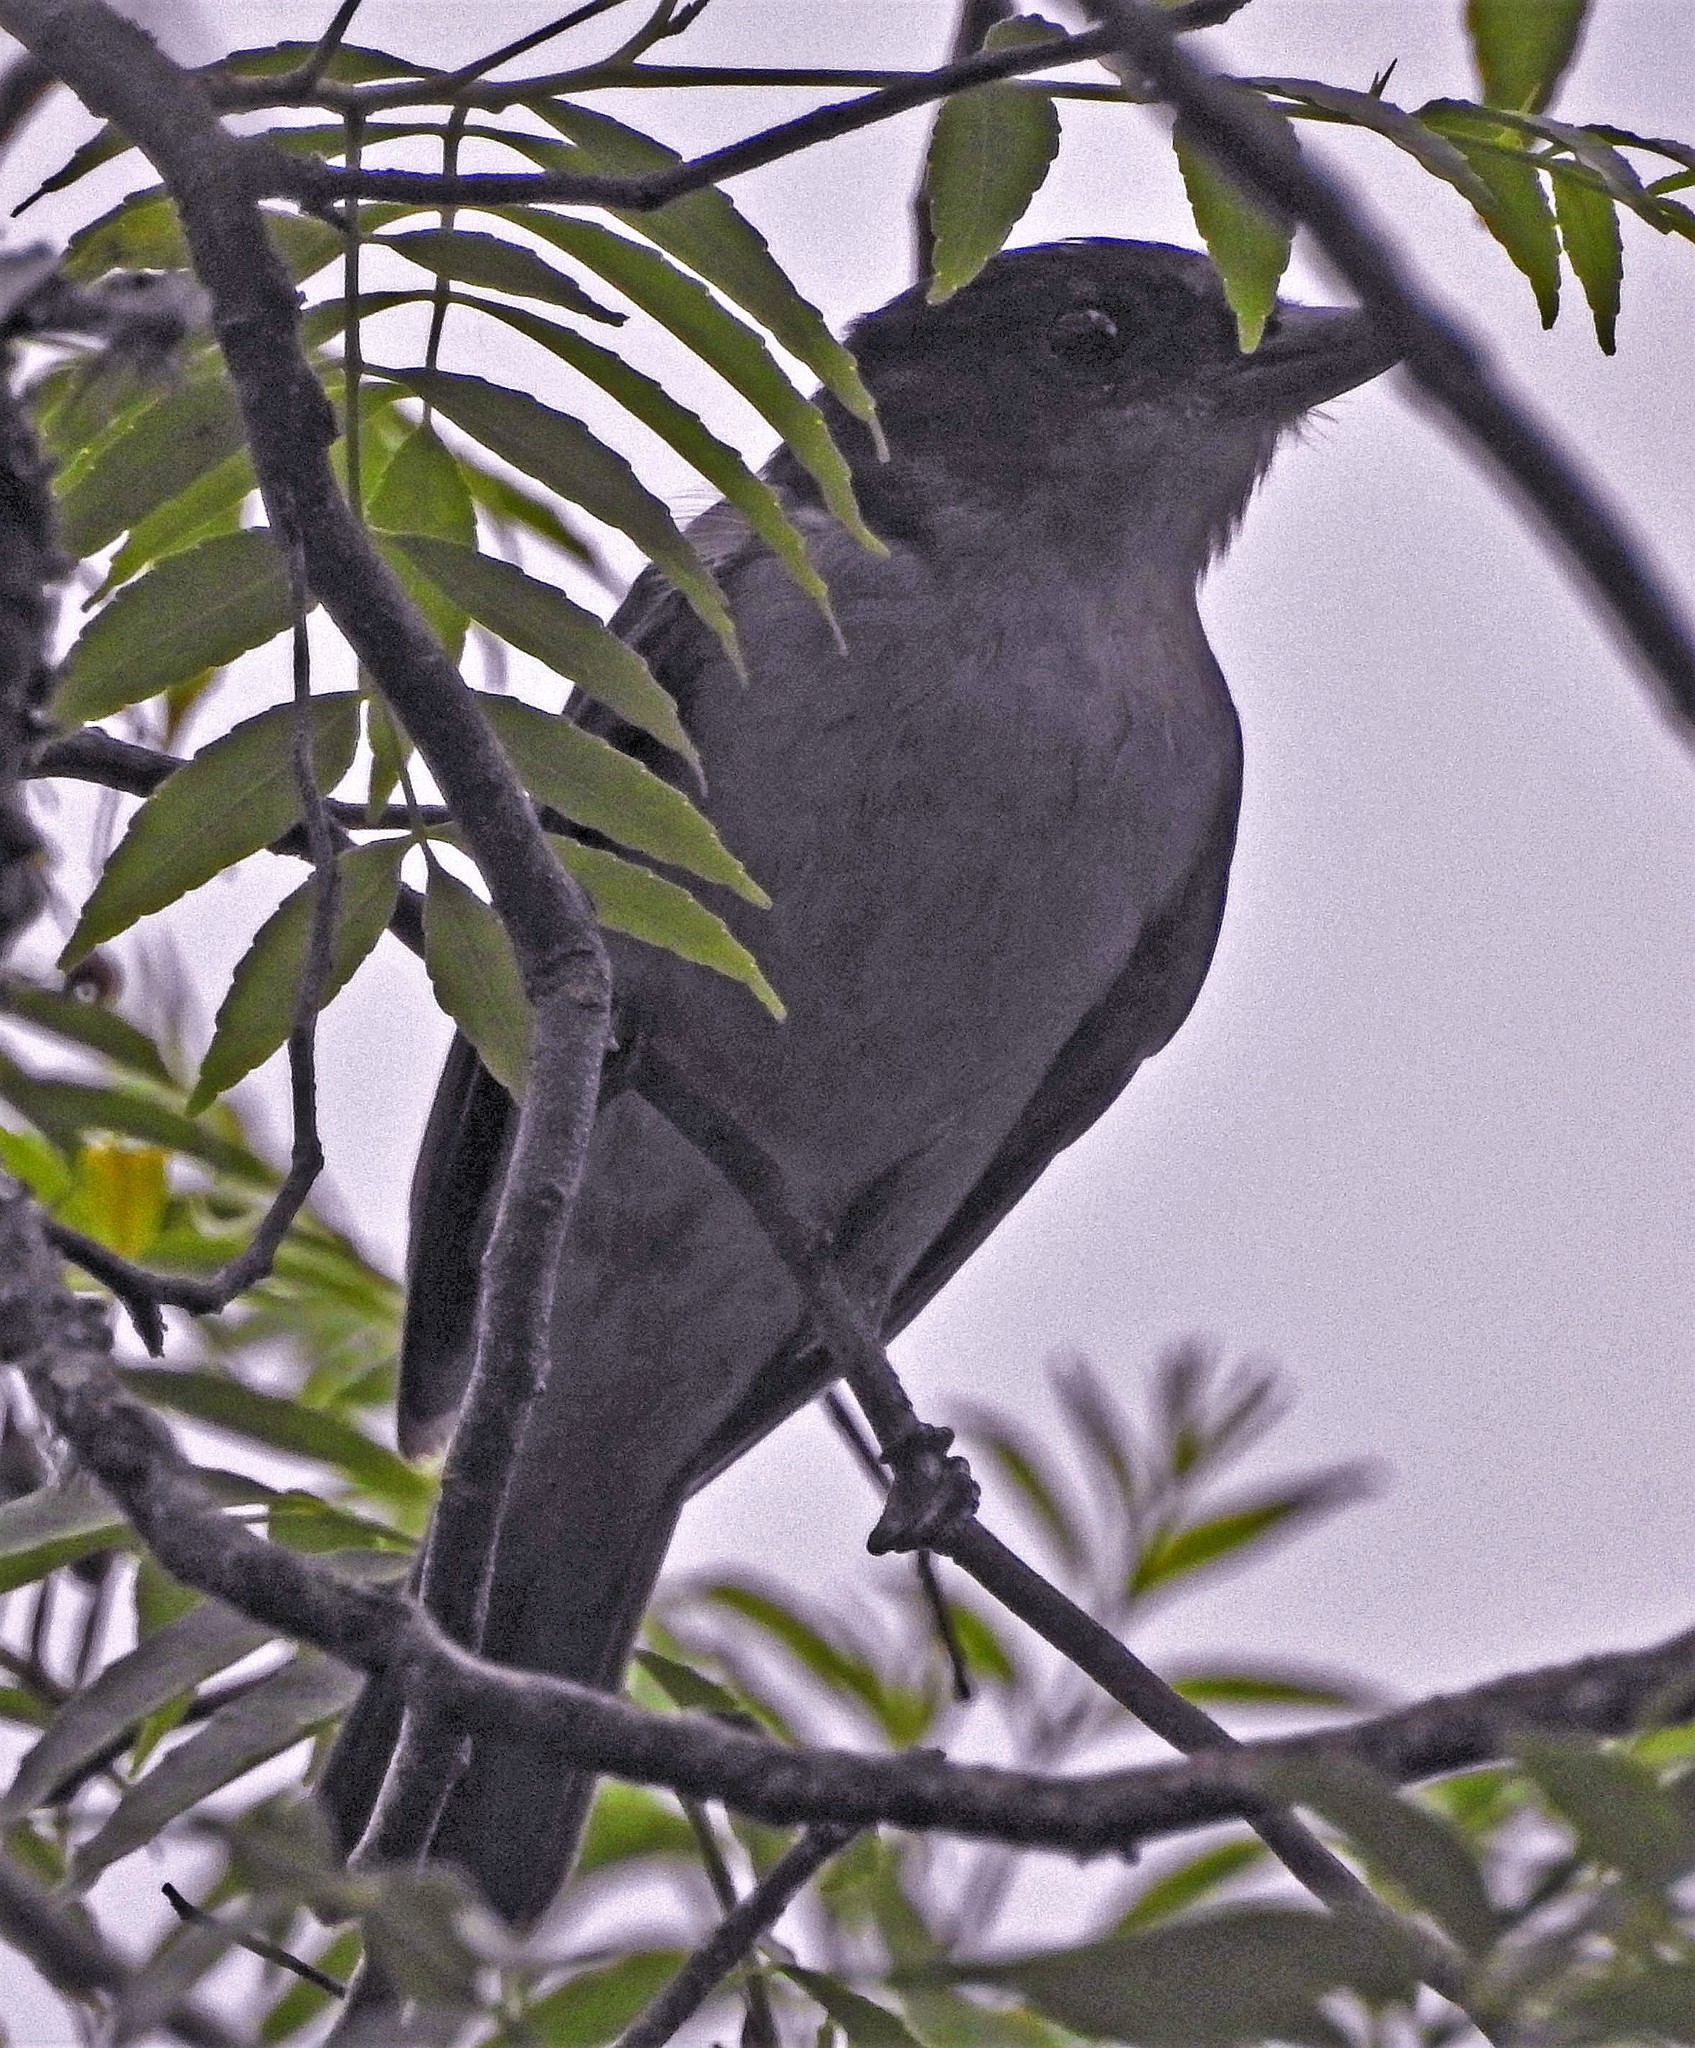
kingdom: Animalia
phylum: Chordata
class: Aves
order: Passeriformes
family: Cotingidae
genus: Pachyramphus
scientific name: Pachyramphus validus
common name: Crested becard
